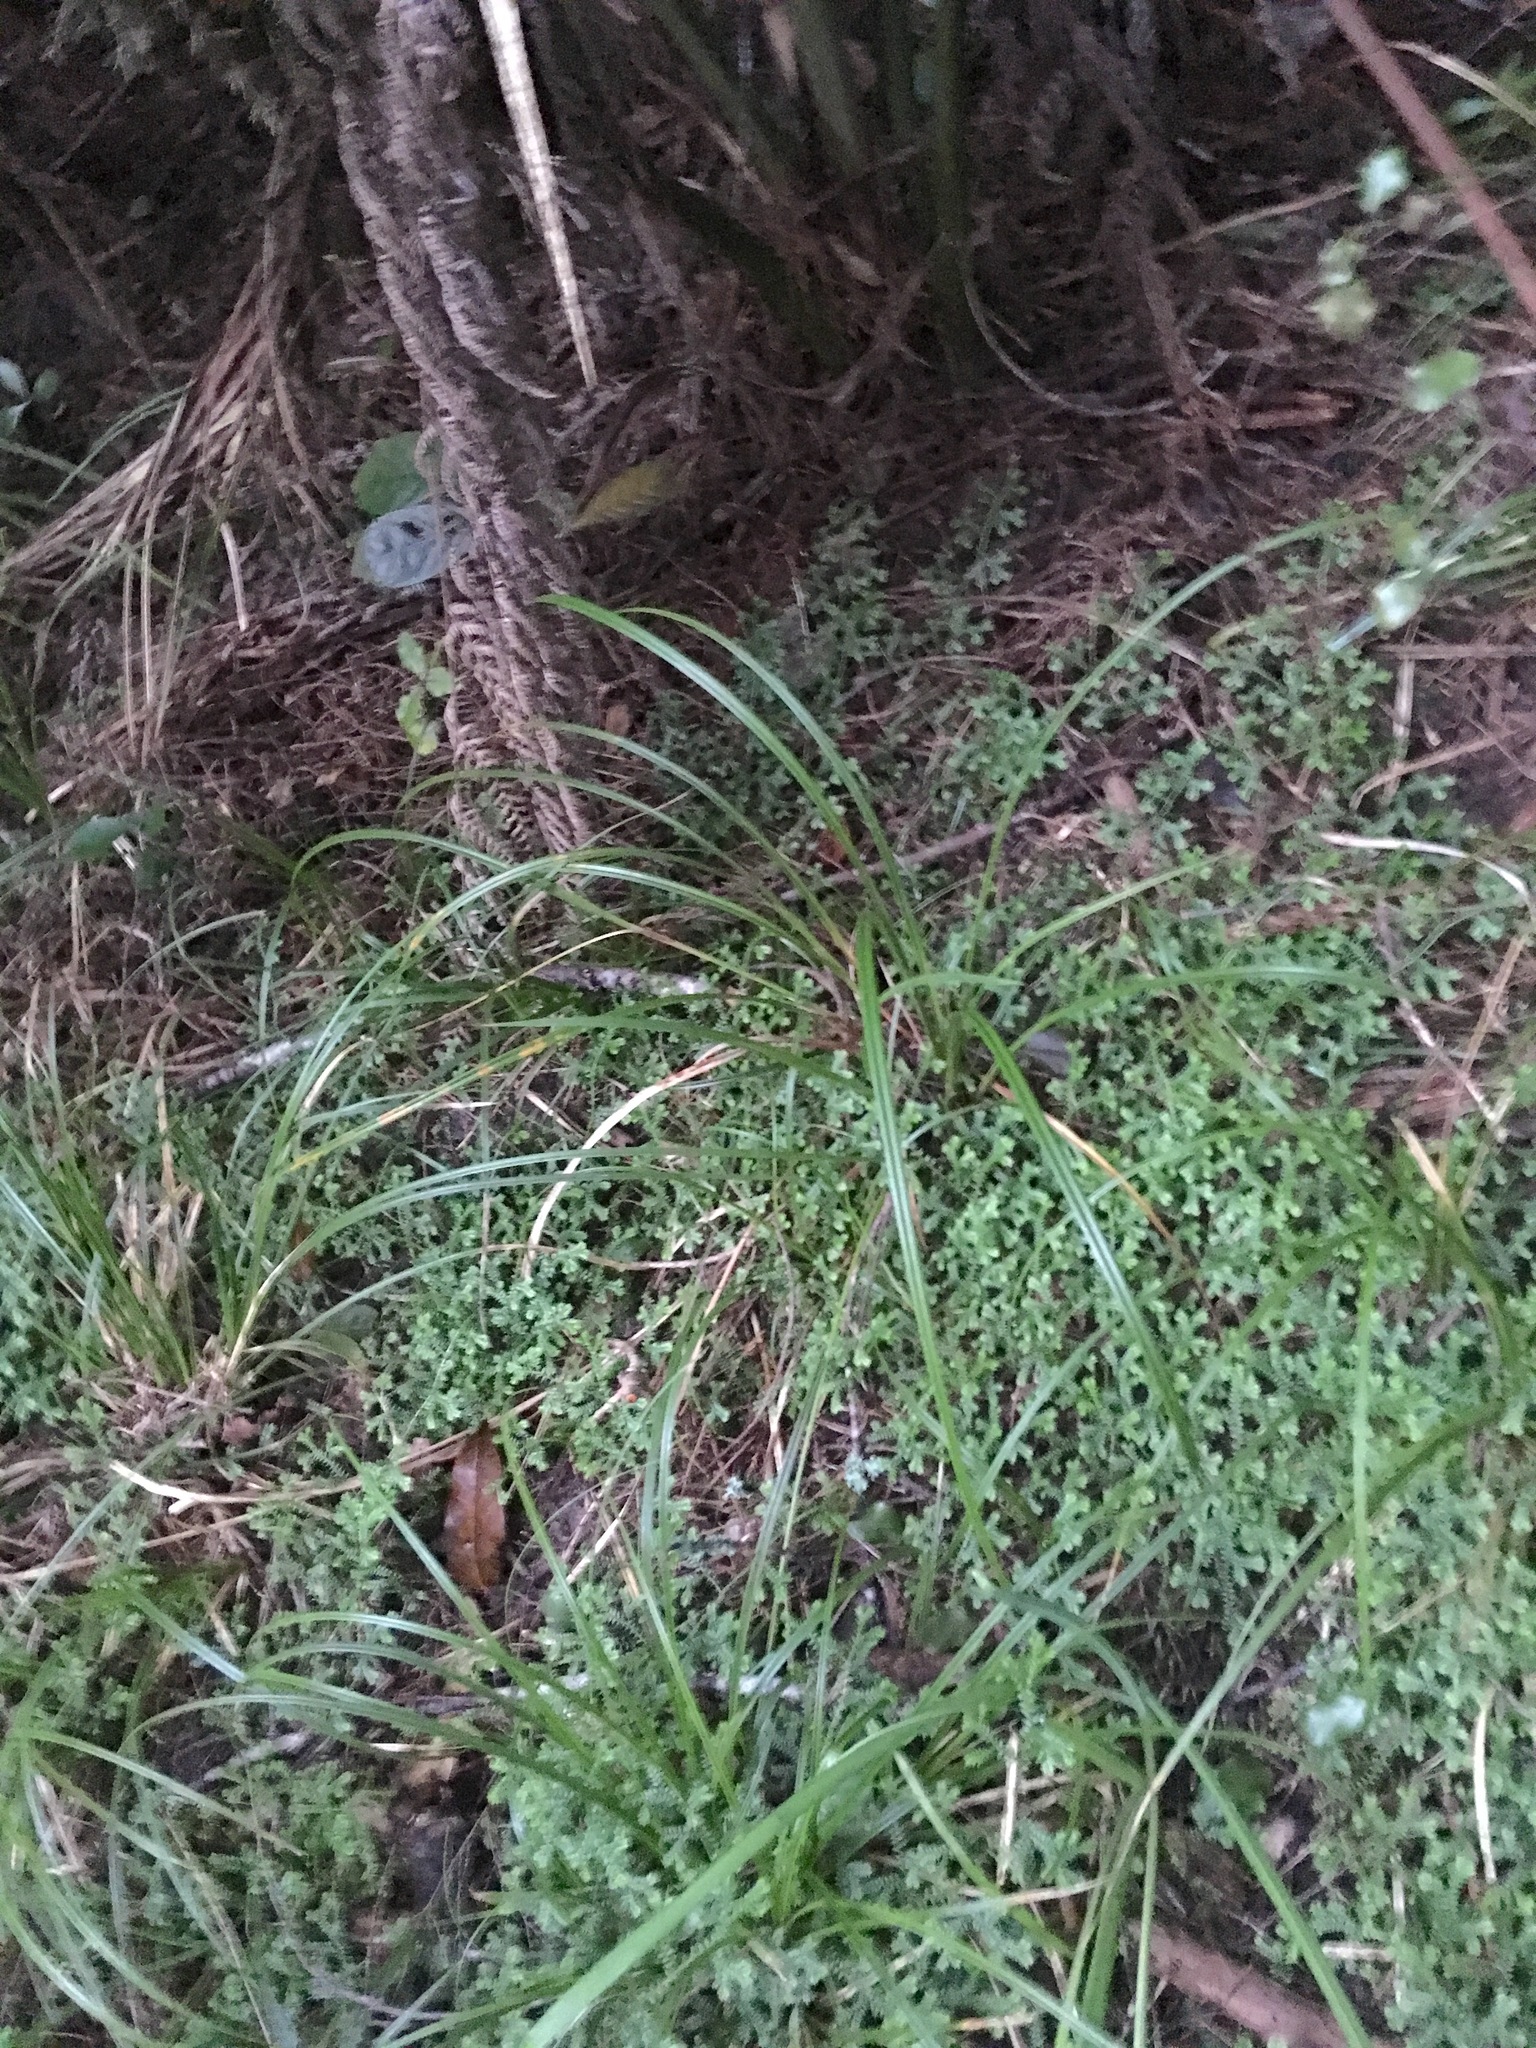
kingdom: Plantae
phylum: Tracheophyta
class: Lycopodiopsida
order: Selaginellales
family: Selaginellaceae
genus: Selaginella
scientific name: Selaginella kraussiana
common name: Krauss' spikemoss
